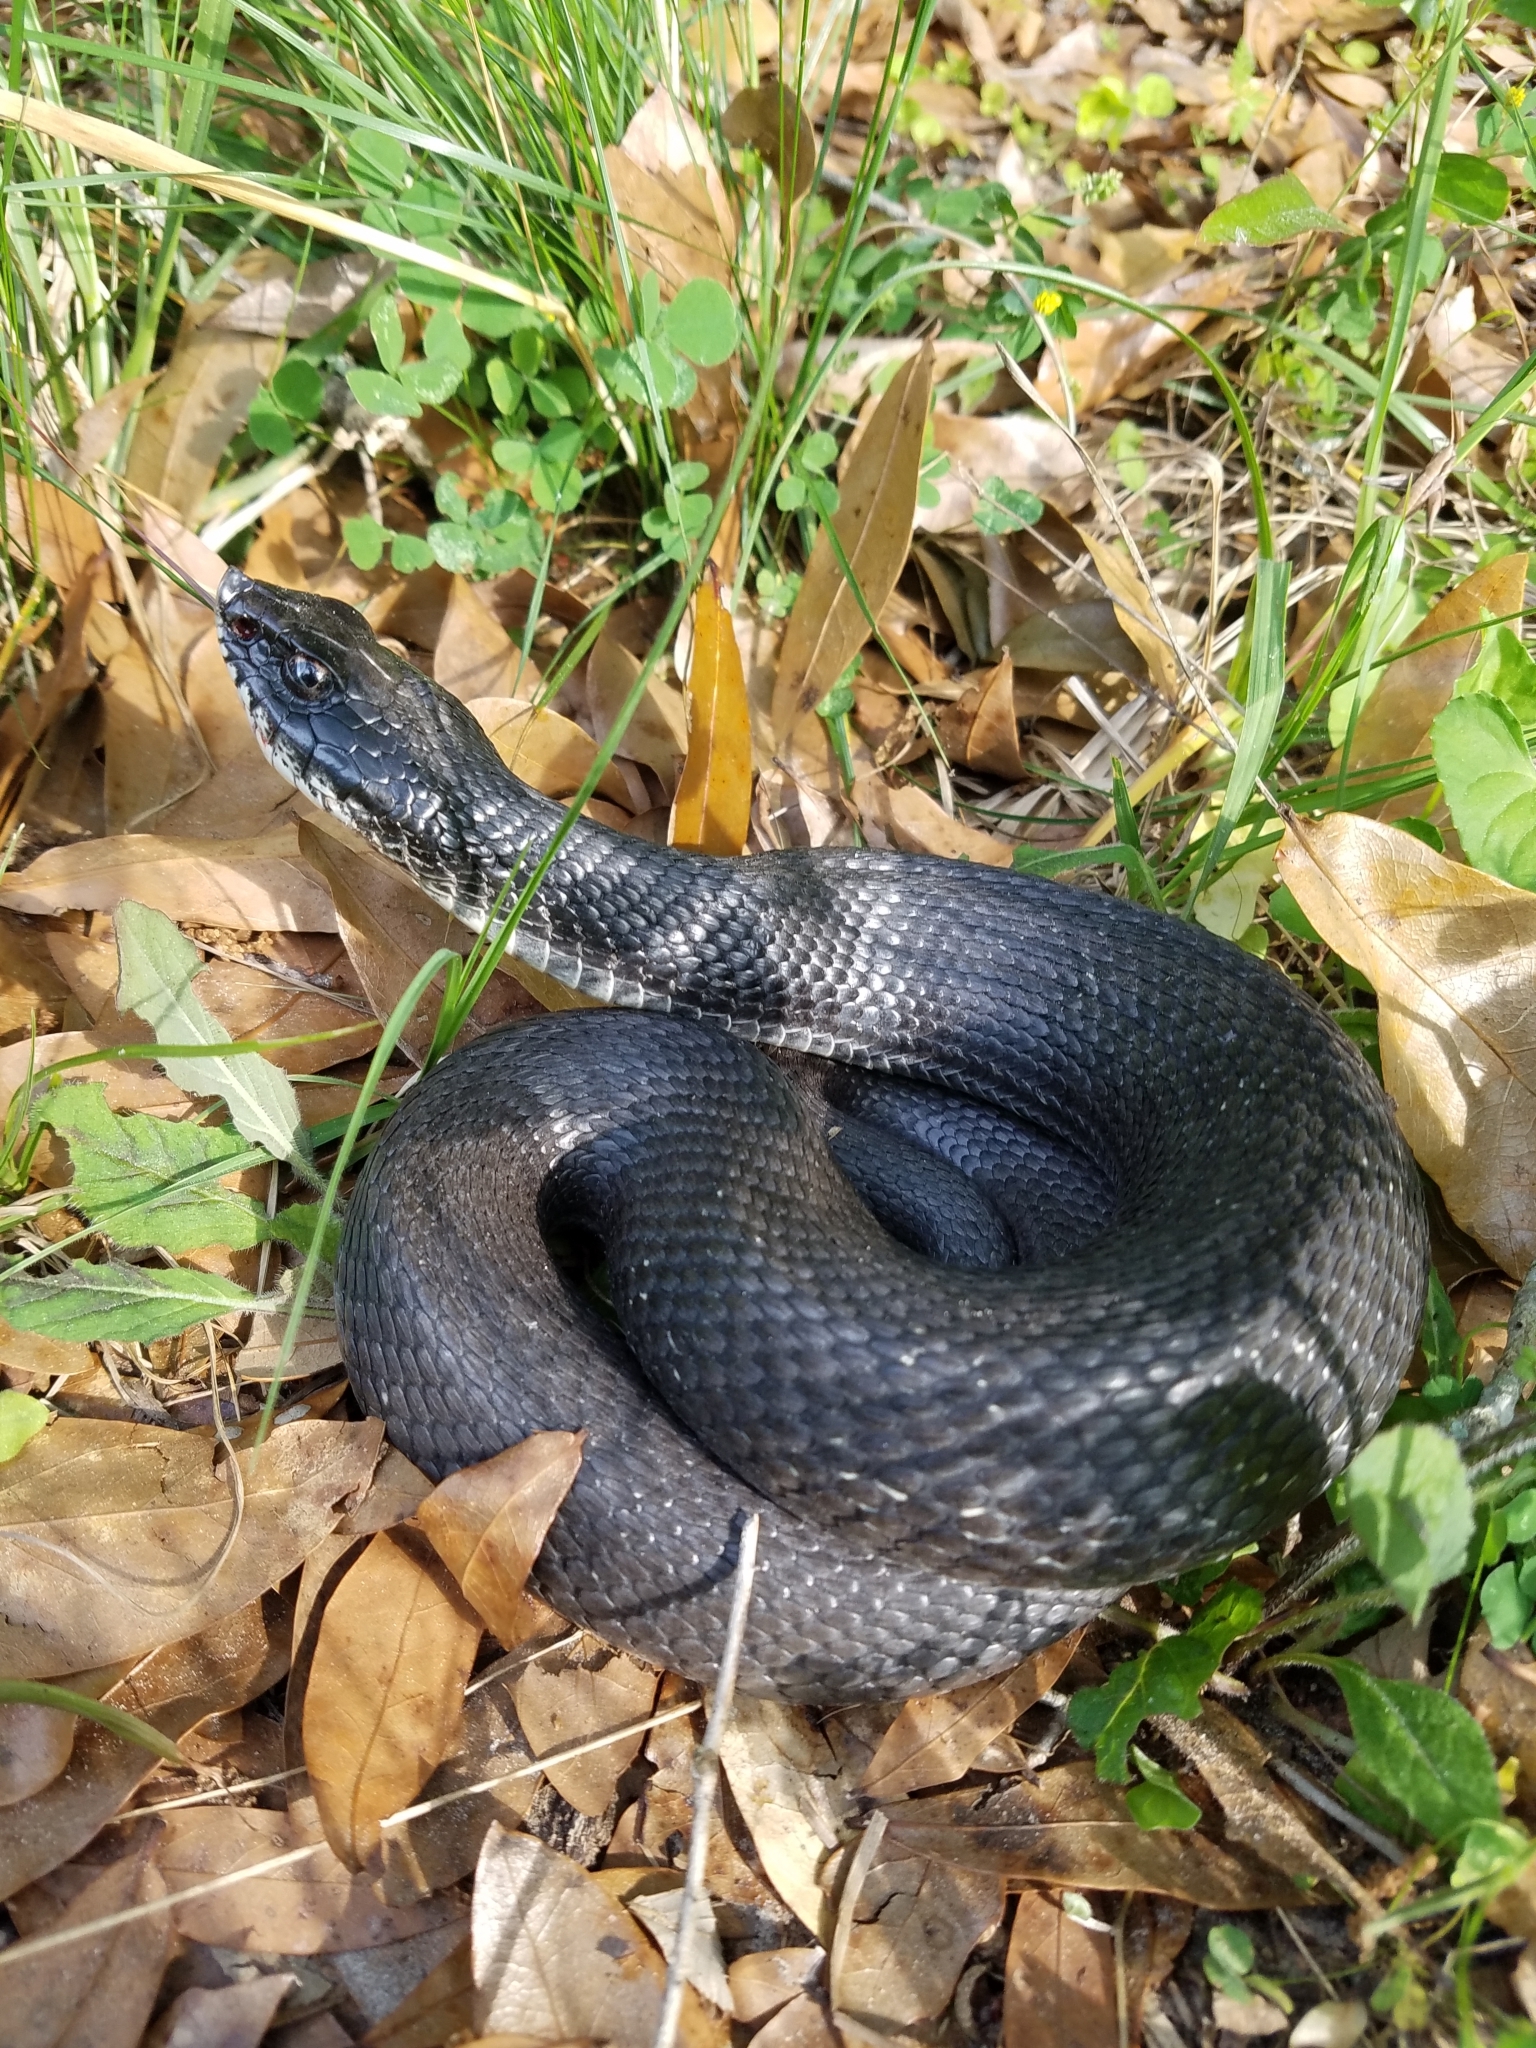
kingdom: Animalia
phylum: Chordata
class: Squamata
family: Colubridae
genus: Heterodon
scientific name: Heterodon platirhinos
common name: Eastern hognose snake
